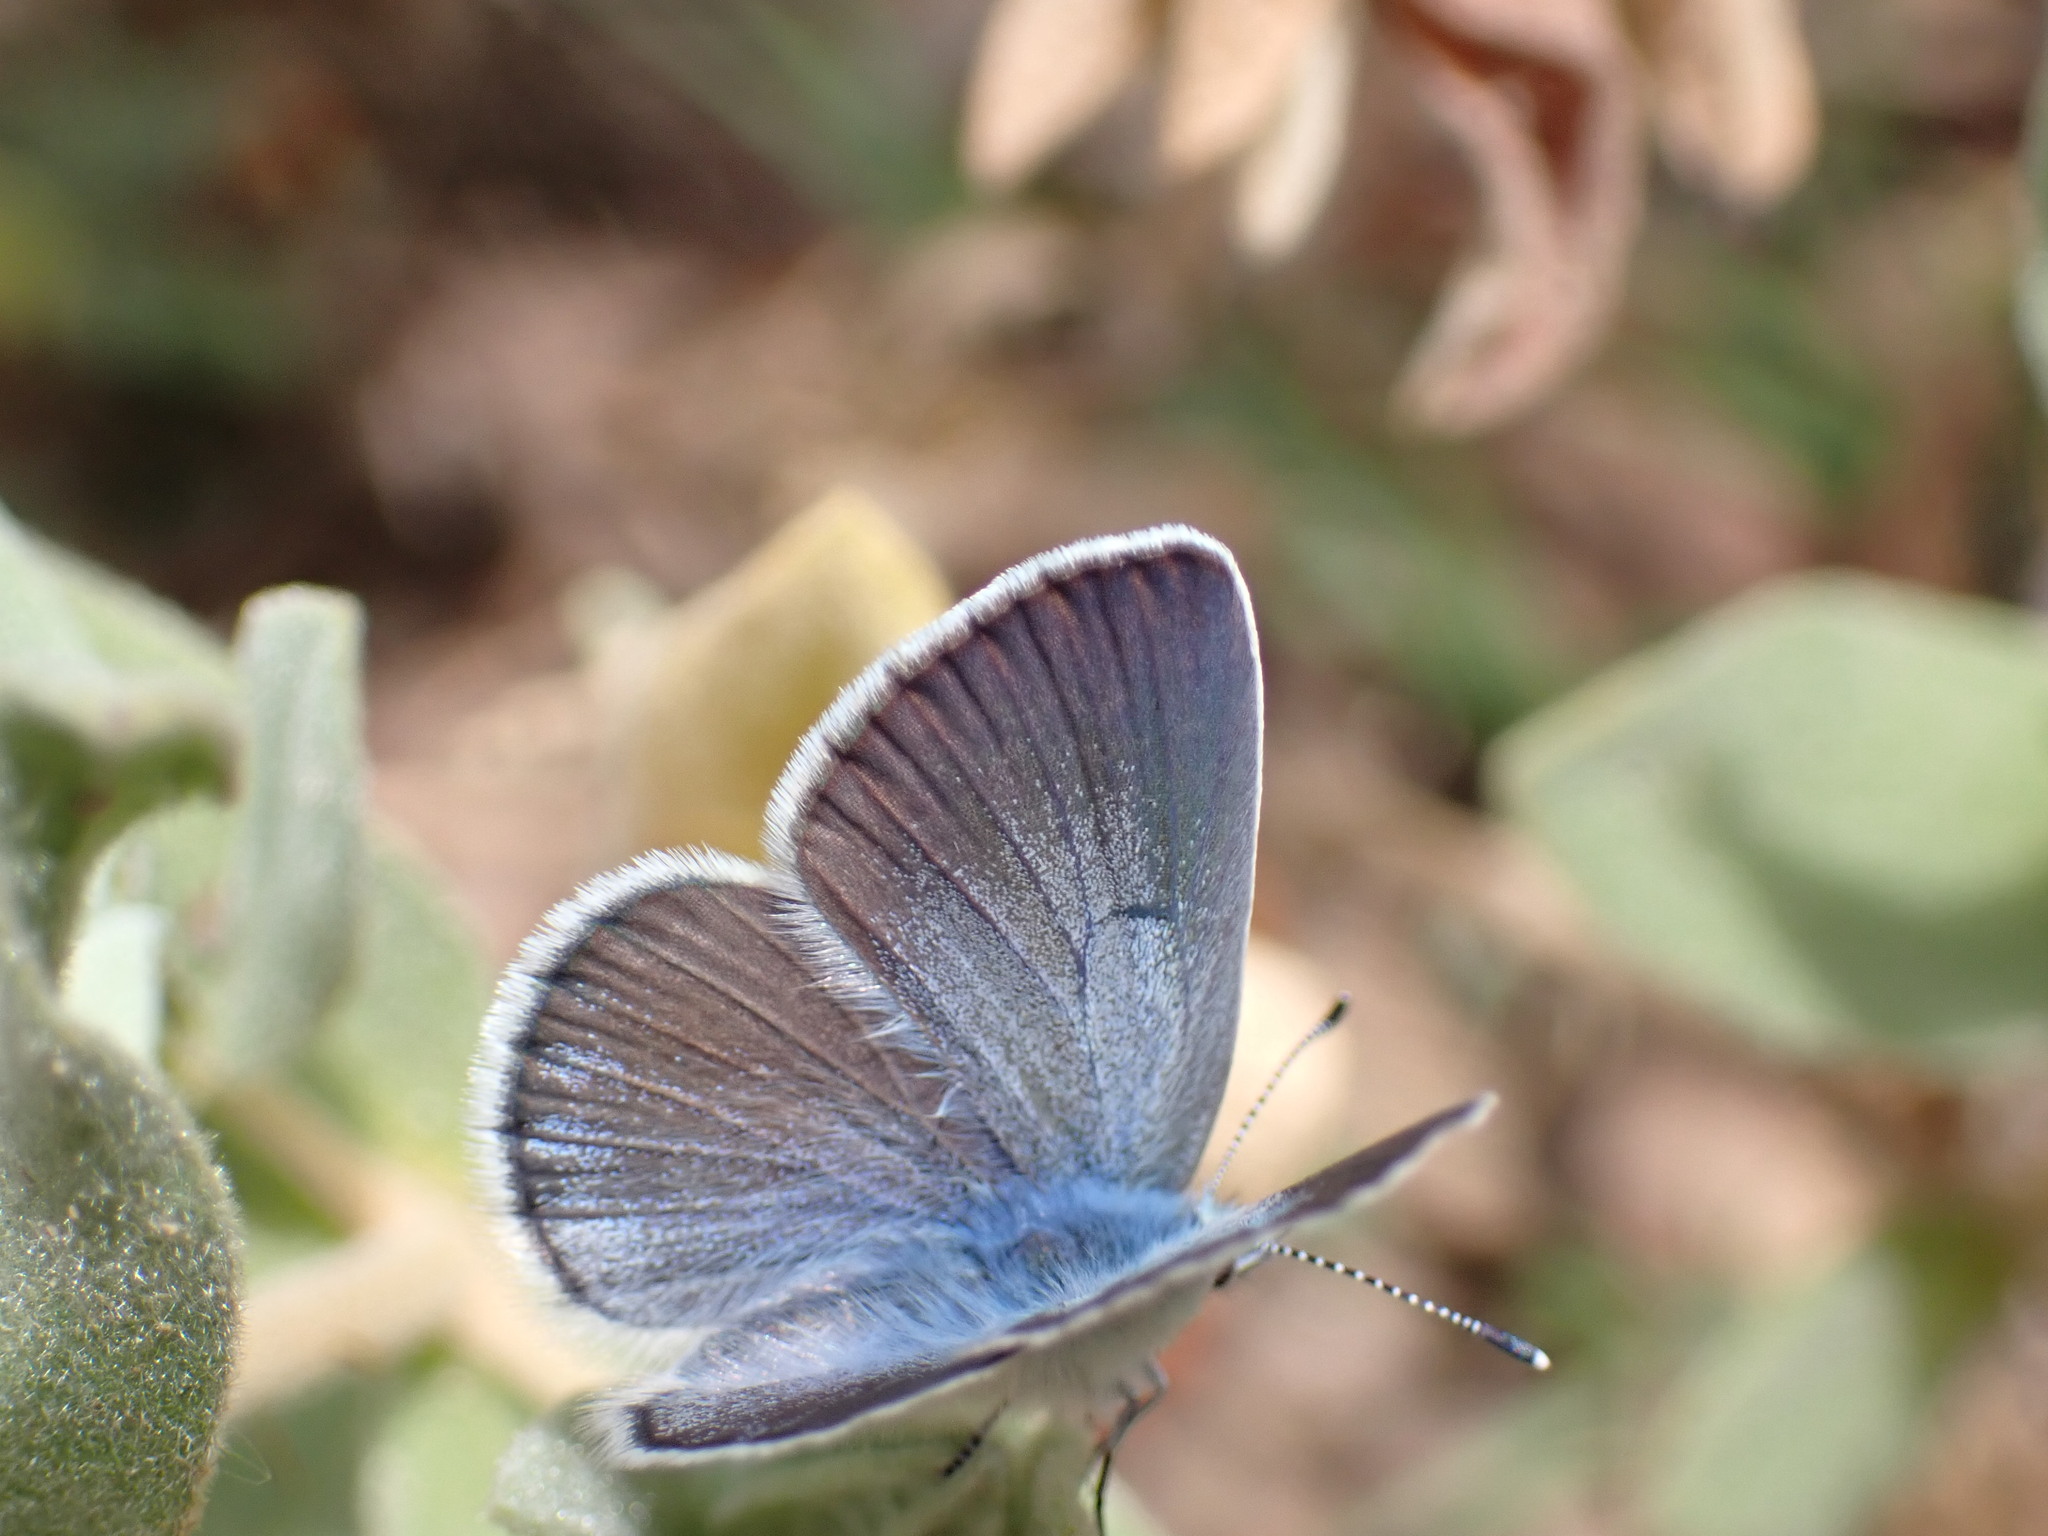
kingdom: Animalia
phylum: Arthropoda
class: Insecta
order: Lepidoptera
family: Lycaenidae
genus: Glaucopsyche
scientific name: Glaucopsyche alexis
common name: Green-underside blue
